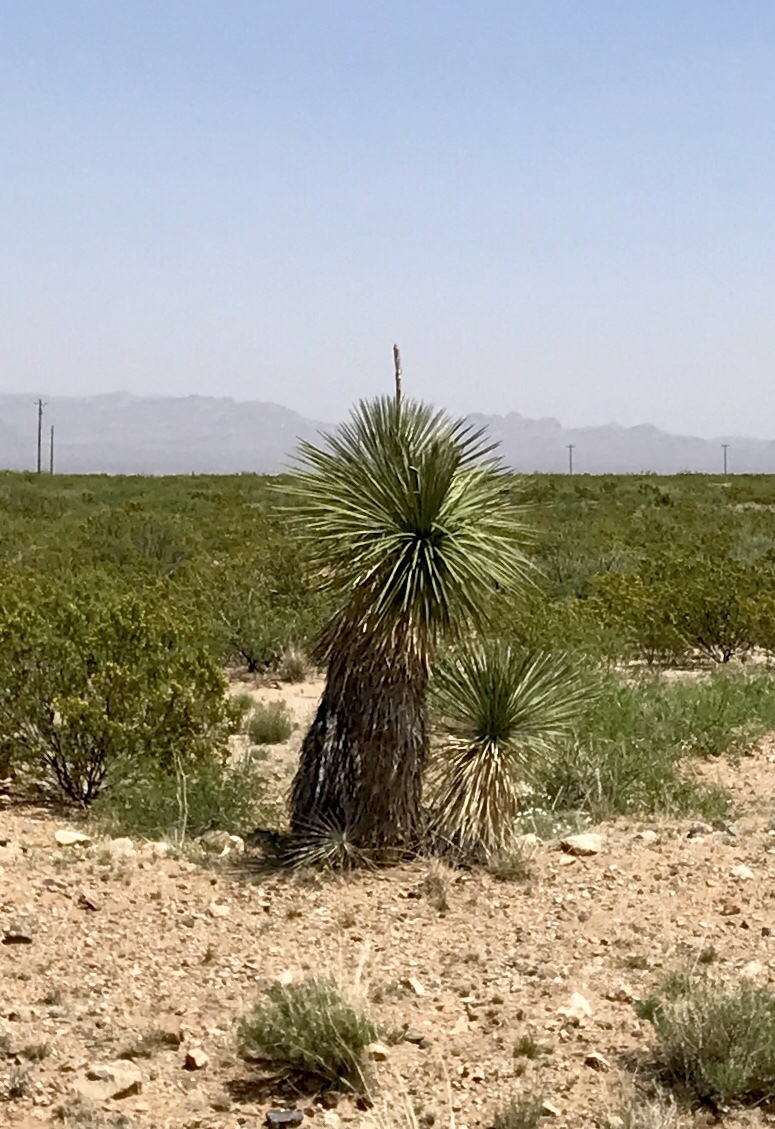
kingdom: Plantae
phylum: Tracheophyta
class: Liliopsida
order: Asparagales
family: Asparagaceae
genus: Yucca
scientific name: Yucca elata
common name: Palmella
